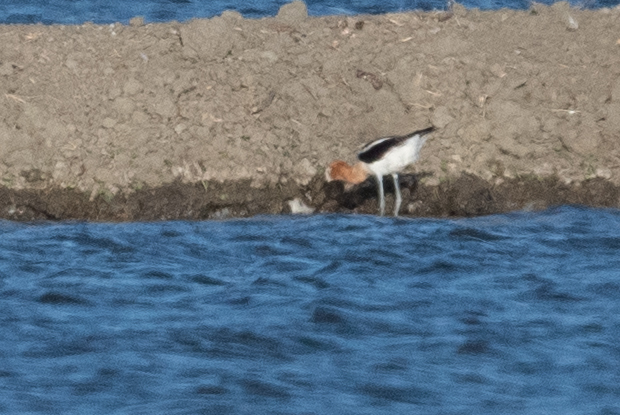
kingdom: Animalia
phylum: Chordata
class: Aves
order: Charadriiformes
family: Recurvirostridae
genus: Recurvirostra
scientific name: Recurvirostra americana
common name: American avocet
